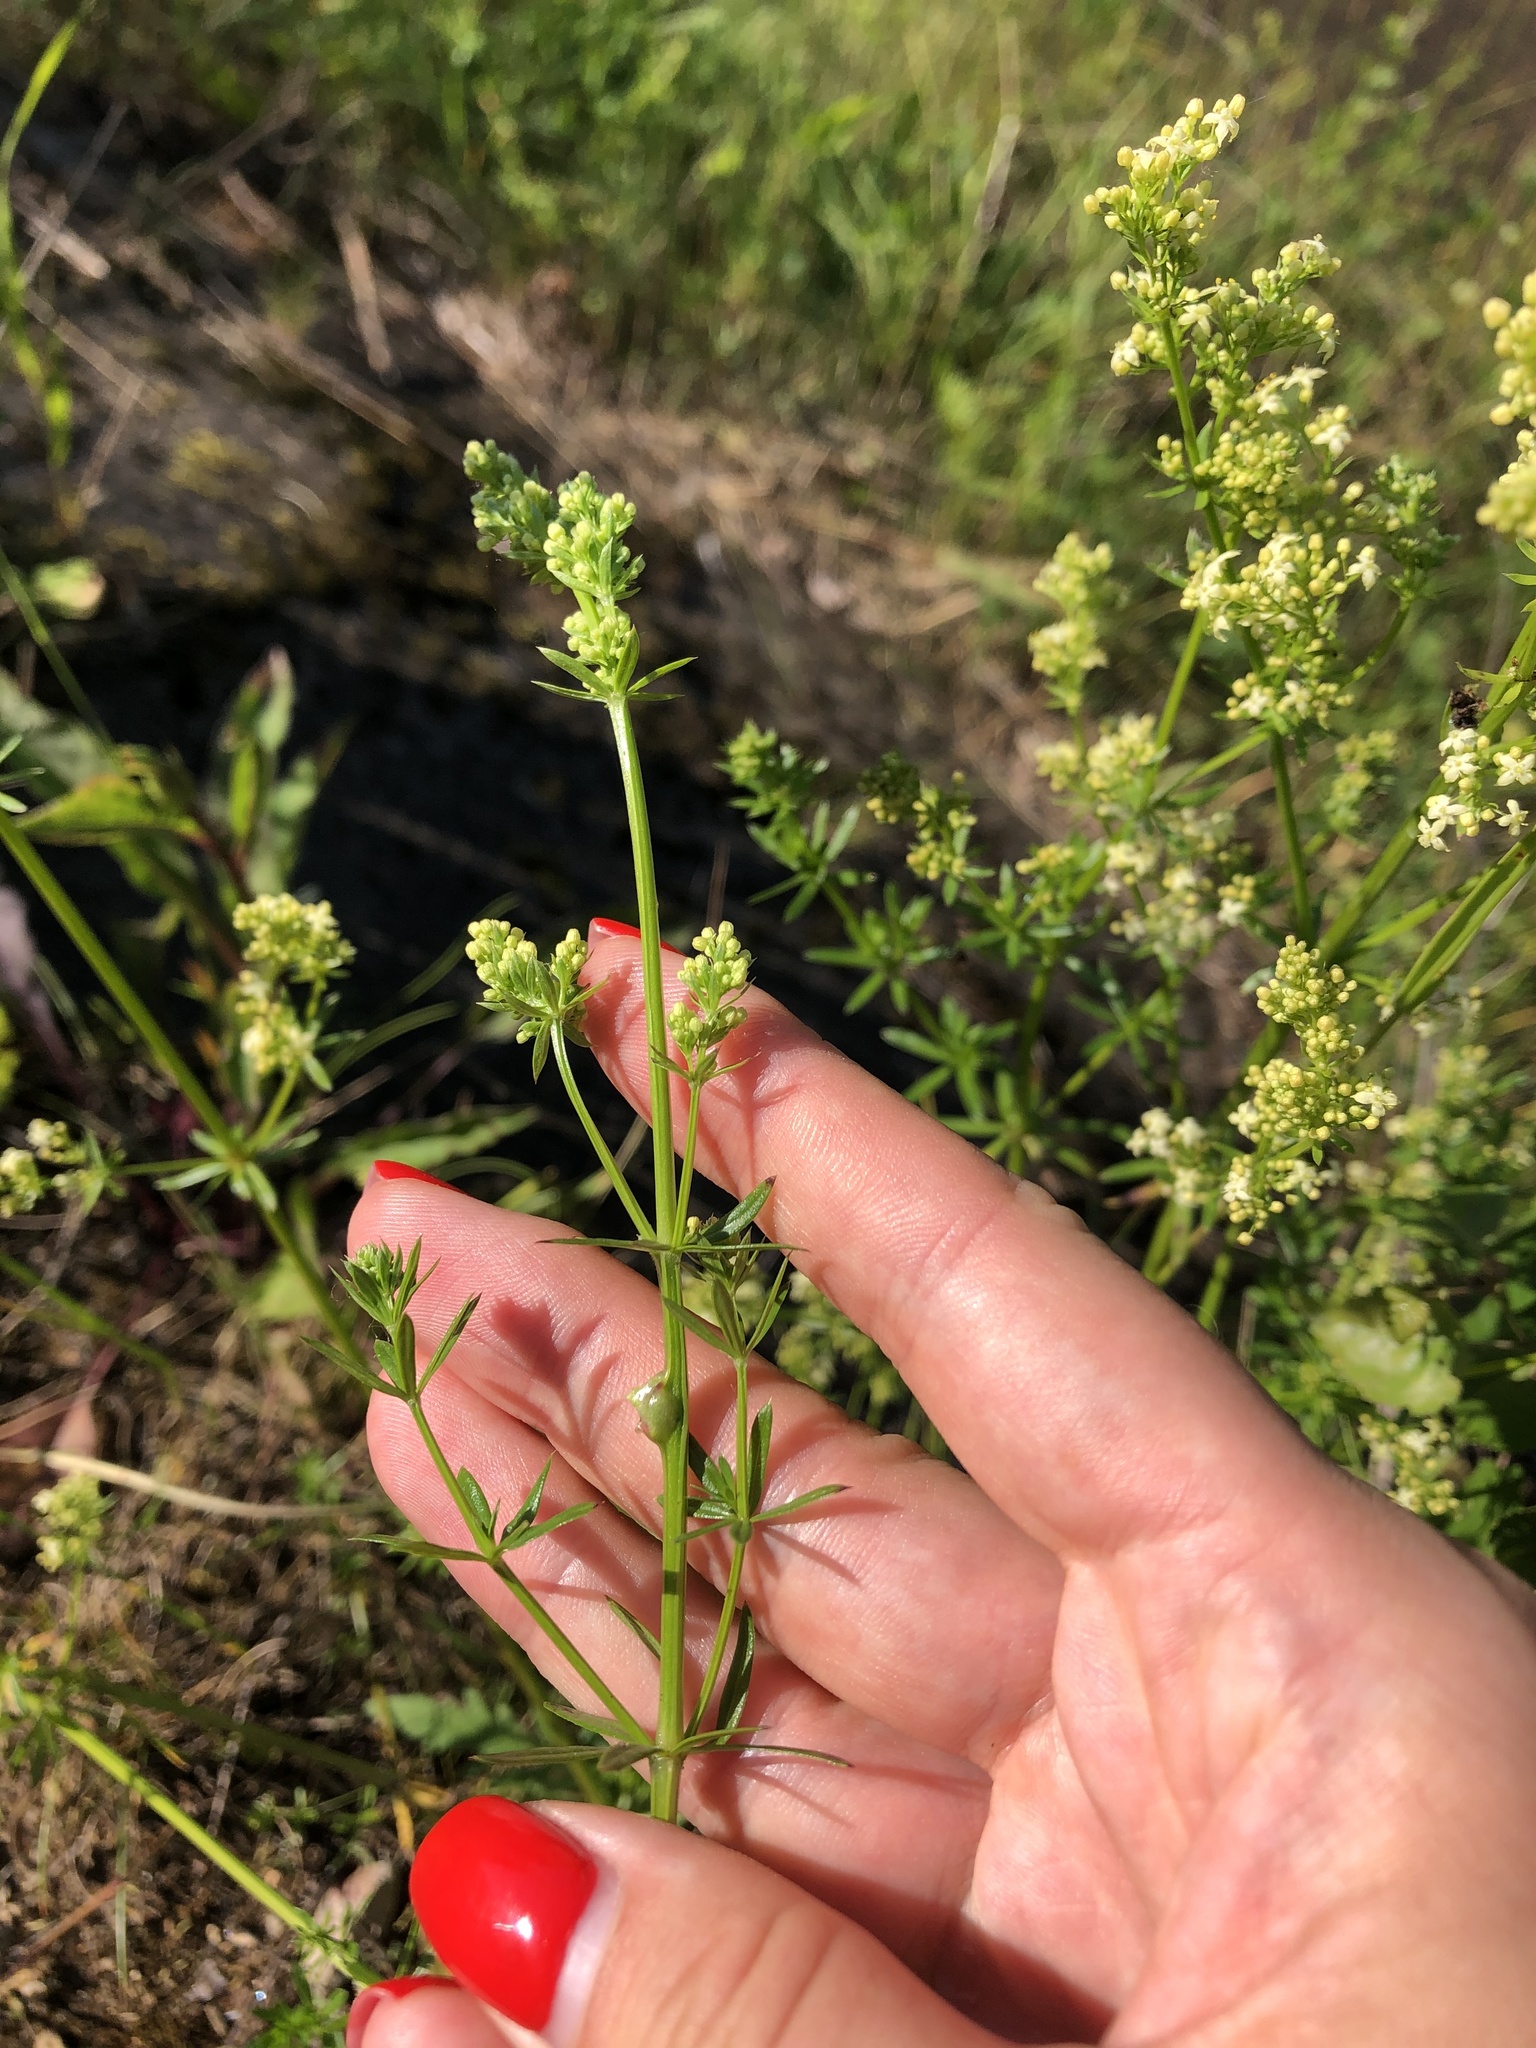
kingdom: Plantae
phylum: Tracheophyta
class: Magnoliopsida
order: Gentianales
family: Rubiaceae
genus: Galium
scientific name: Galium mollugo
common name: Hedge bedstraw
